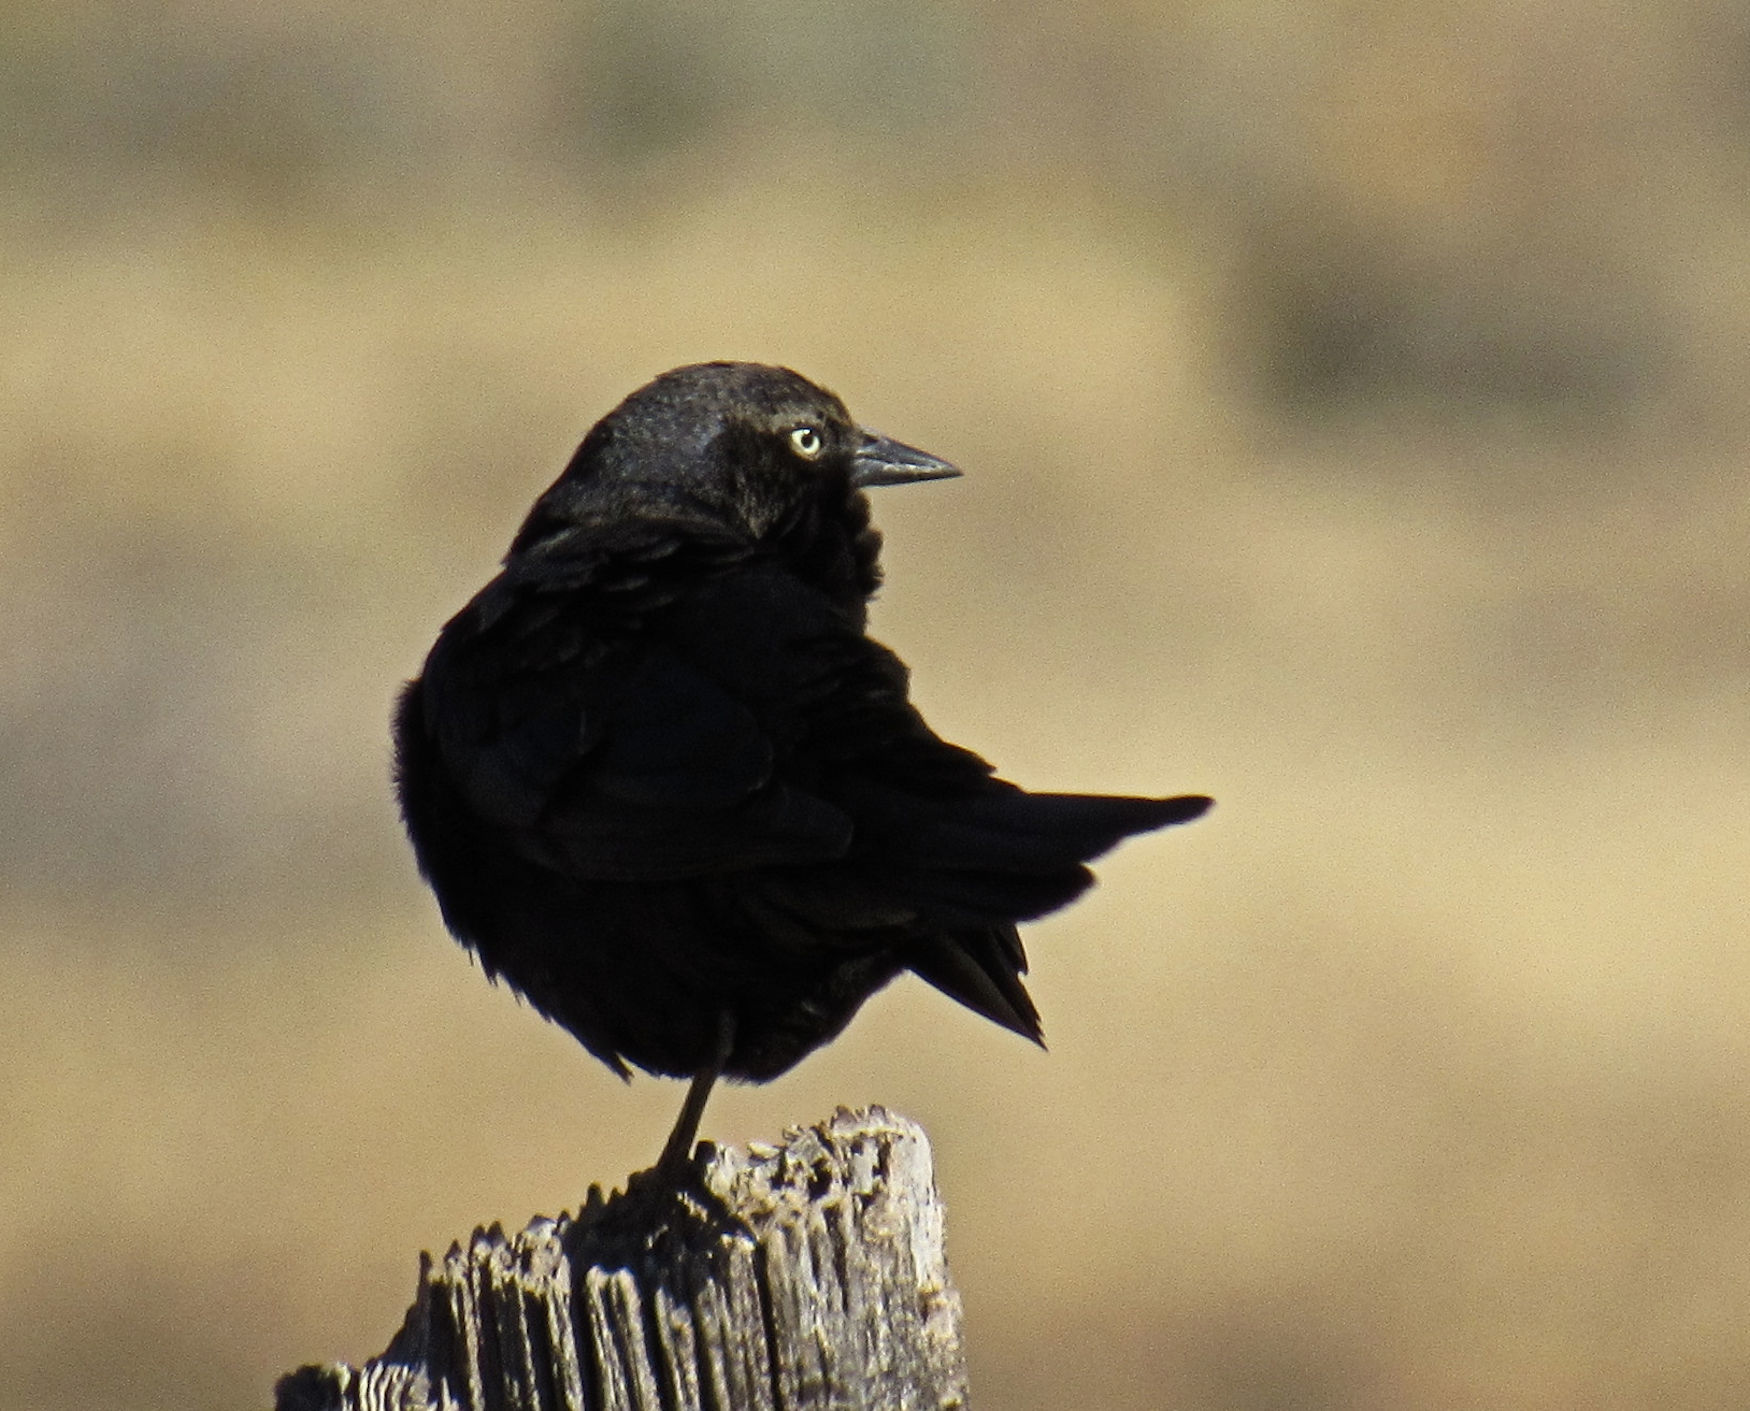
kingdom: Animalia
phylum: Chordata
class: Aves
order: Passeriformes
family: Icteridae
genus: Euphagus
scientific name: Euphagus cyanocephalus
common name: Brewer's blackbird
